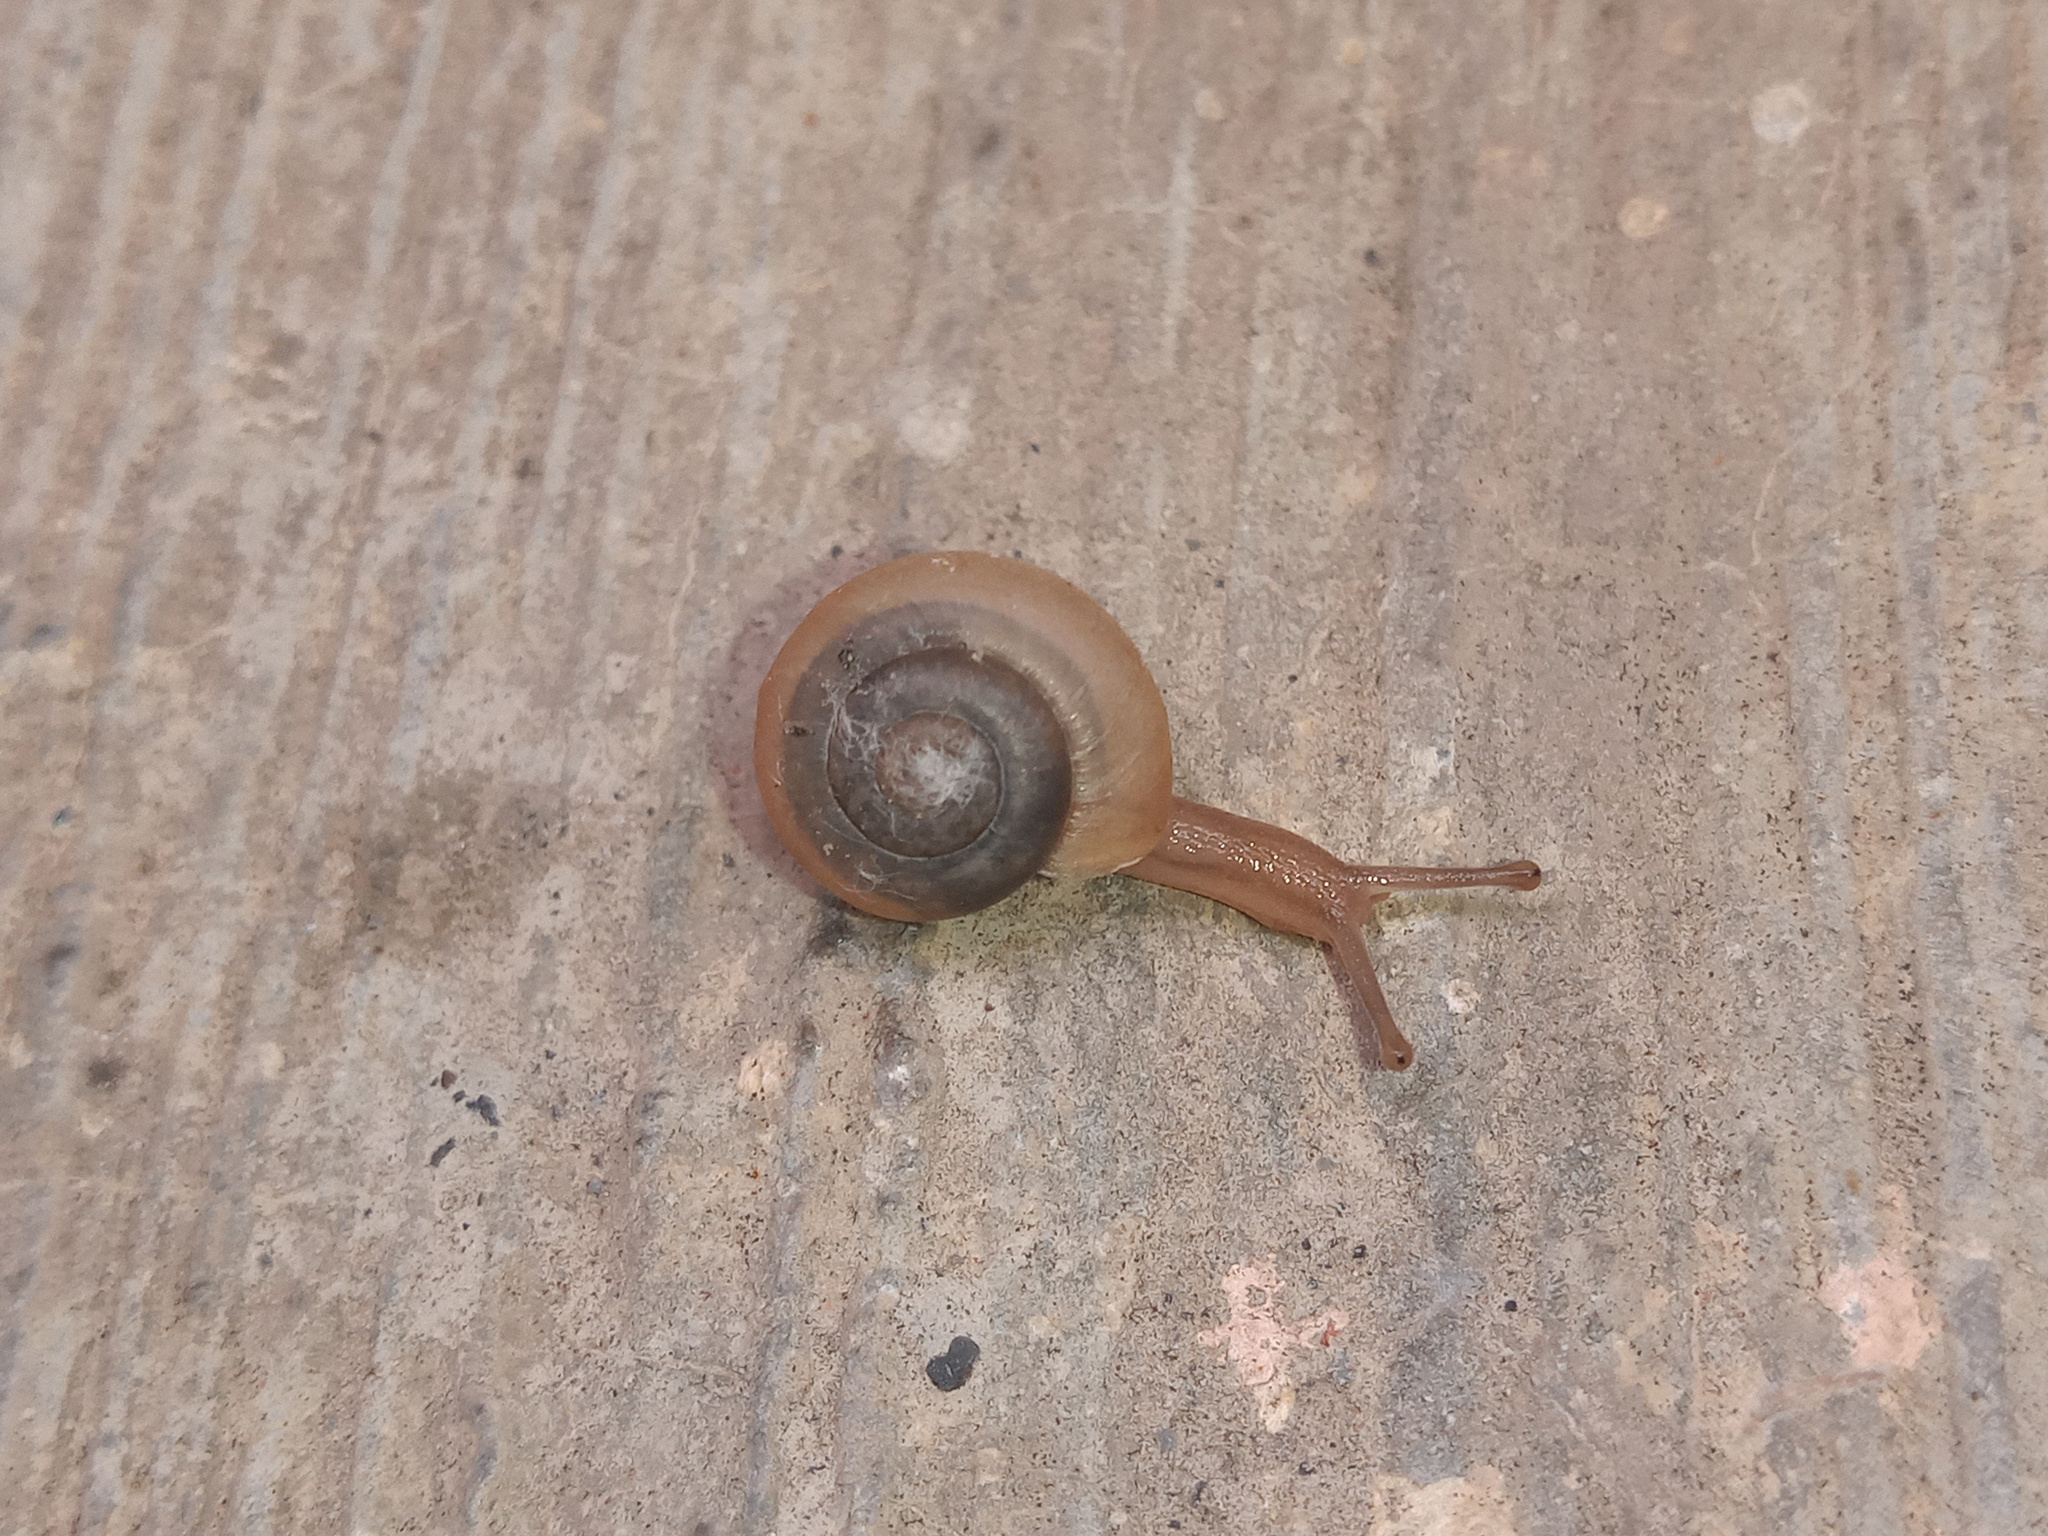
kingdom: Animalia
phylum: Mollusca
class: Gastropoda
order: Stylommatophora
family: Camaenidae
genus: Bradybaena
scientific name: Bradybaena similaris
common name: Asian trampsnail
